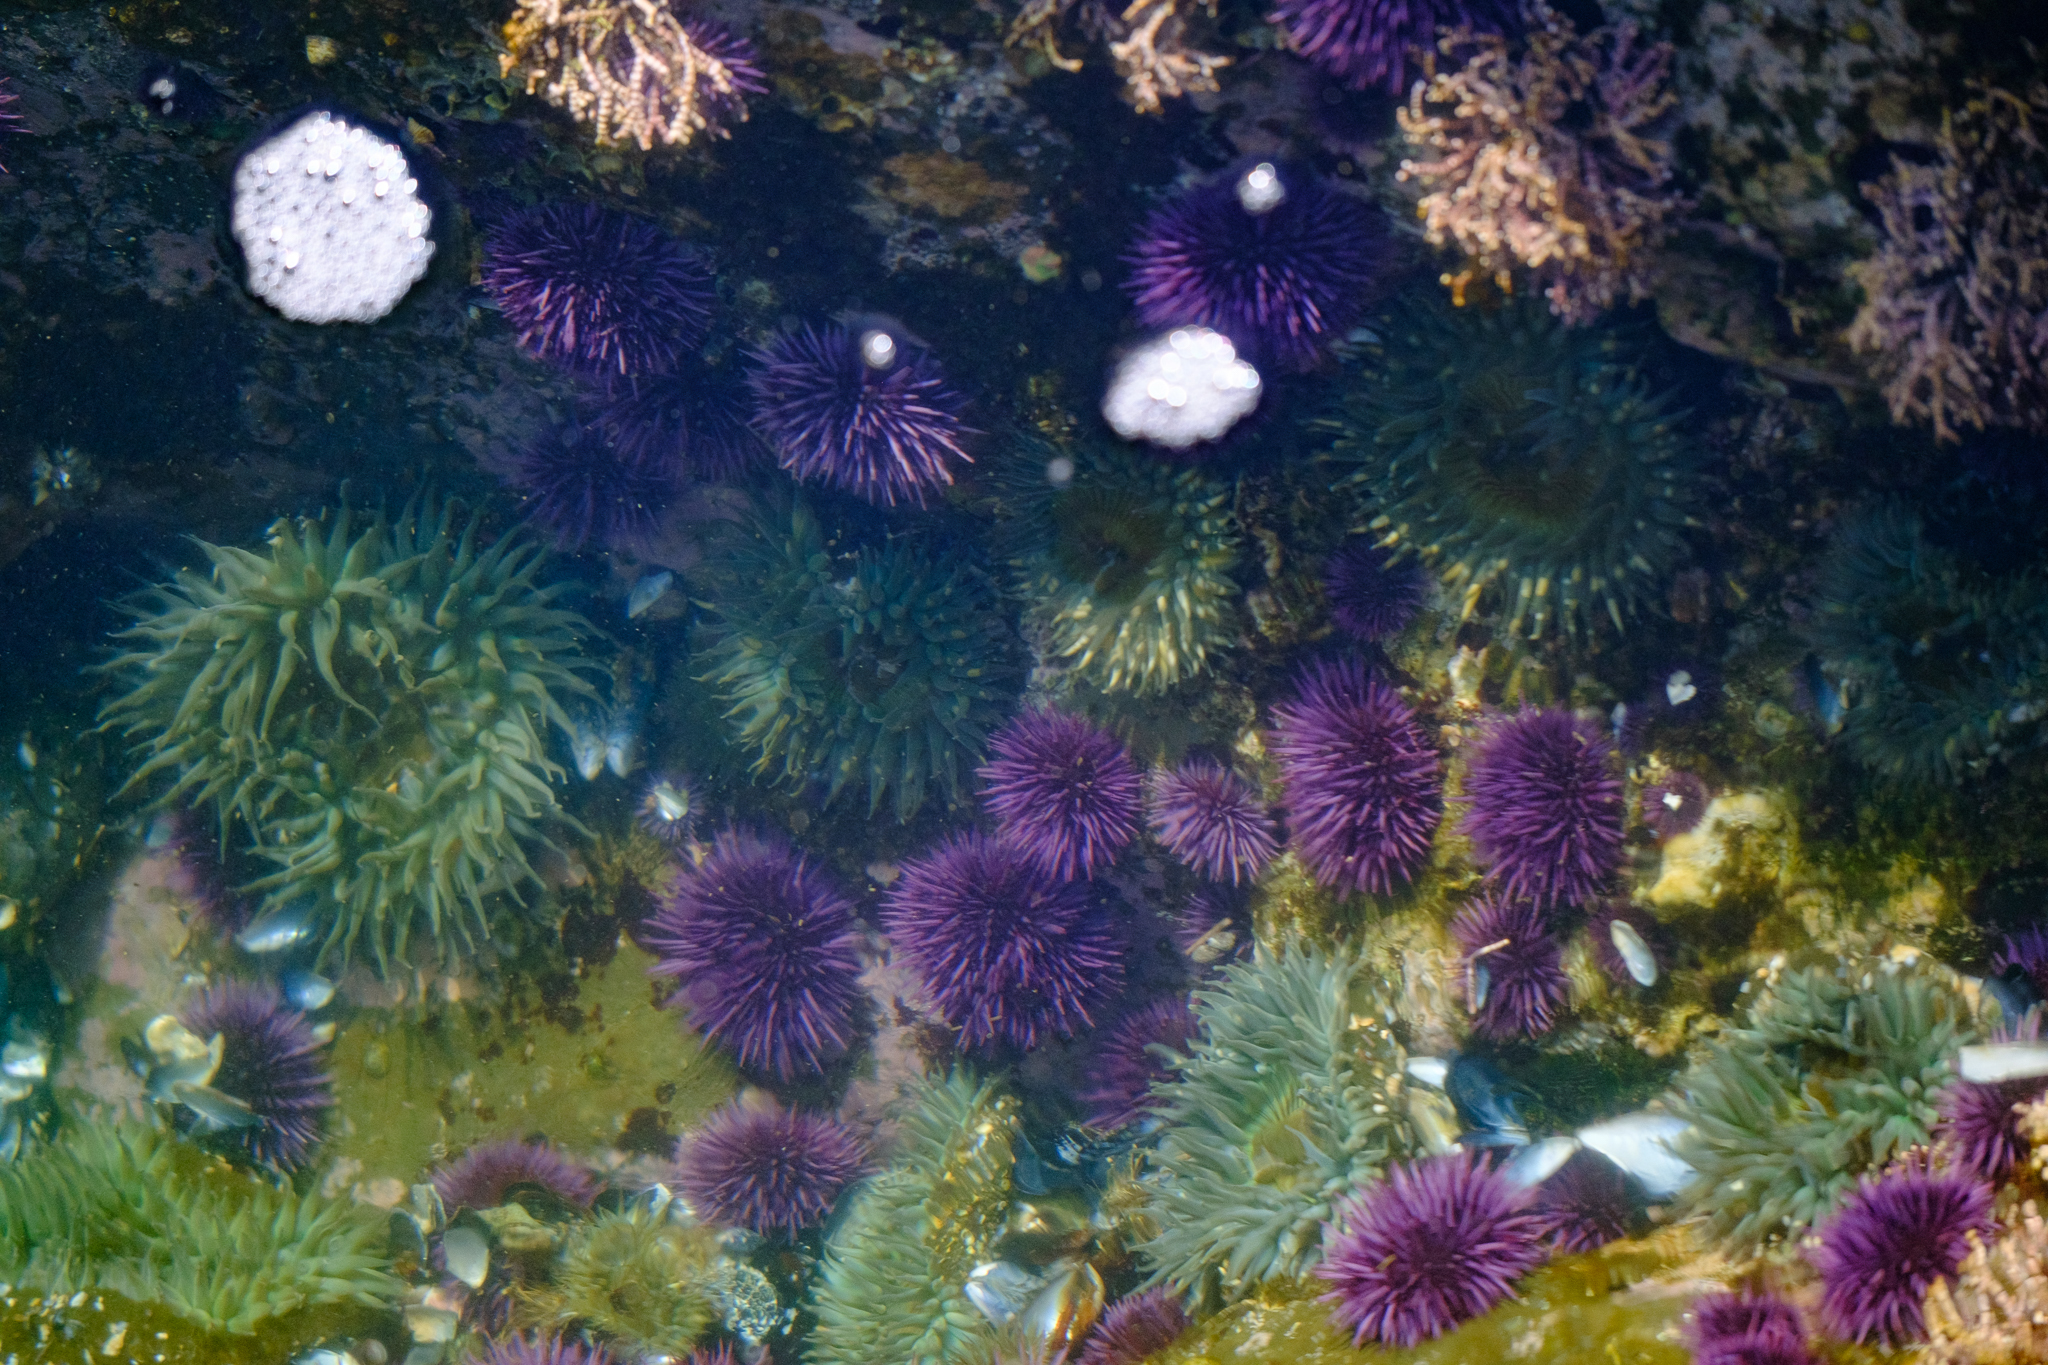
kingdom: Animalia
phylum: Echinodermata
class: Echinoidea
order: Camarodonta
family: Strongylocentrotidae
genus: Strongylocentrotus
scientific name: Strongylocentrotus purpuratus
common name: Purple sea urchin
